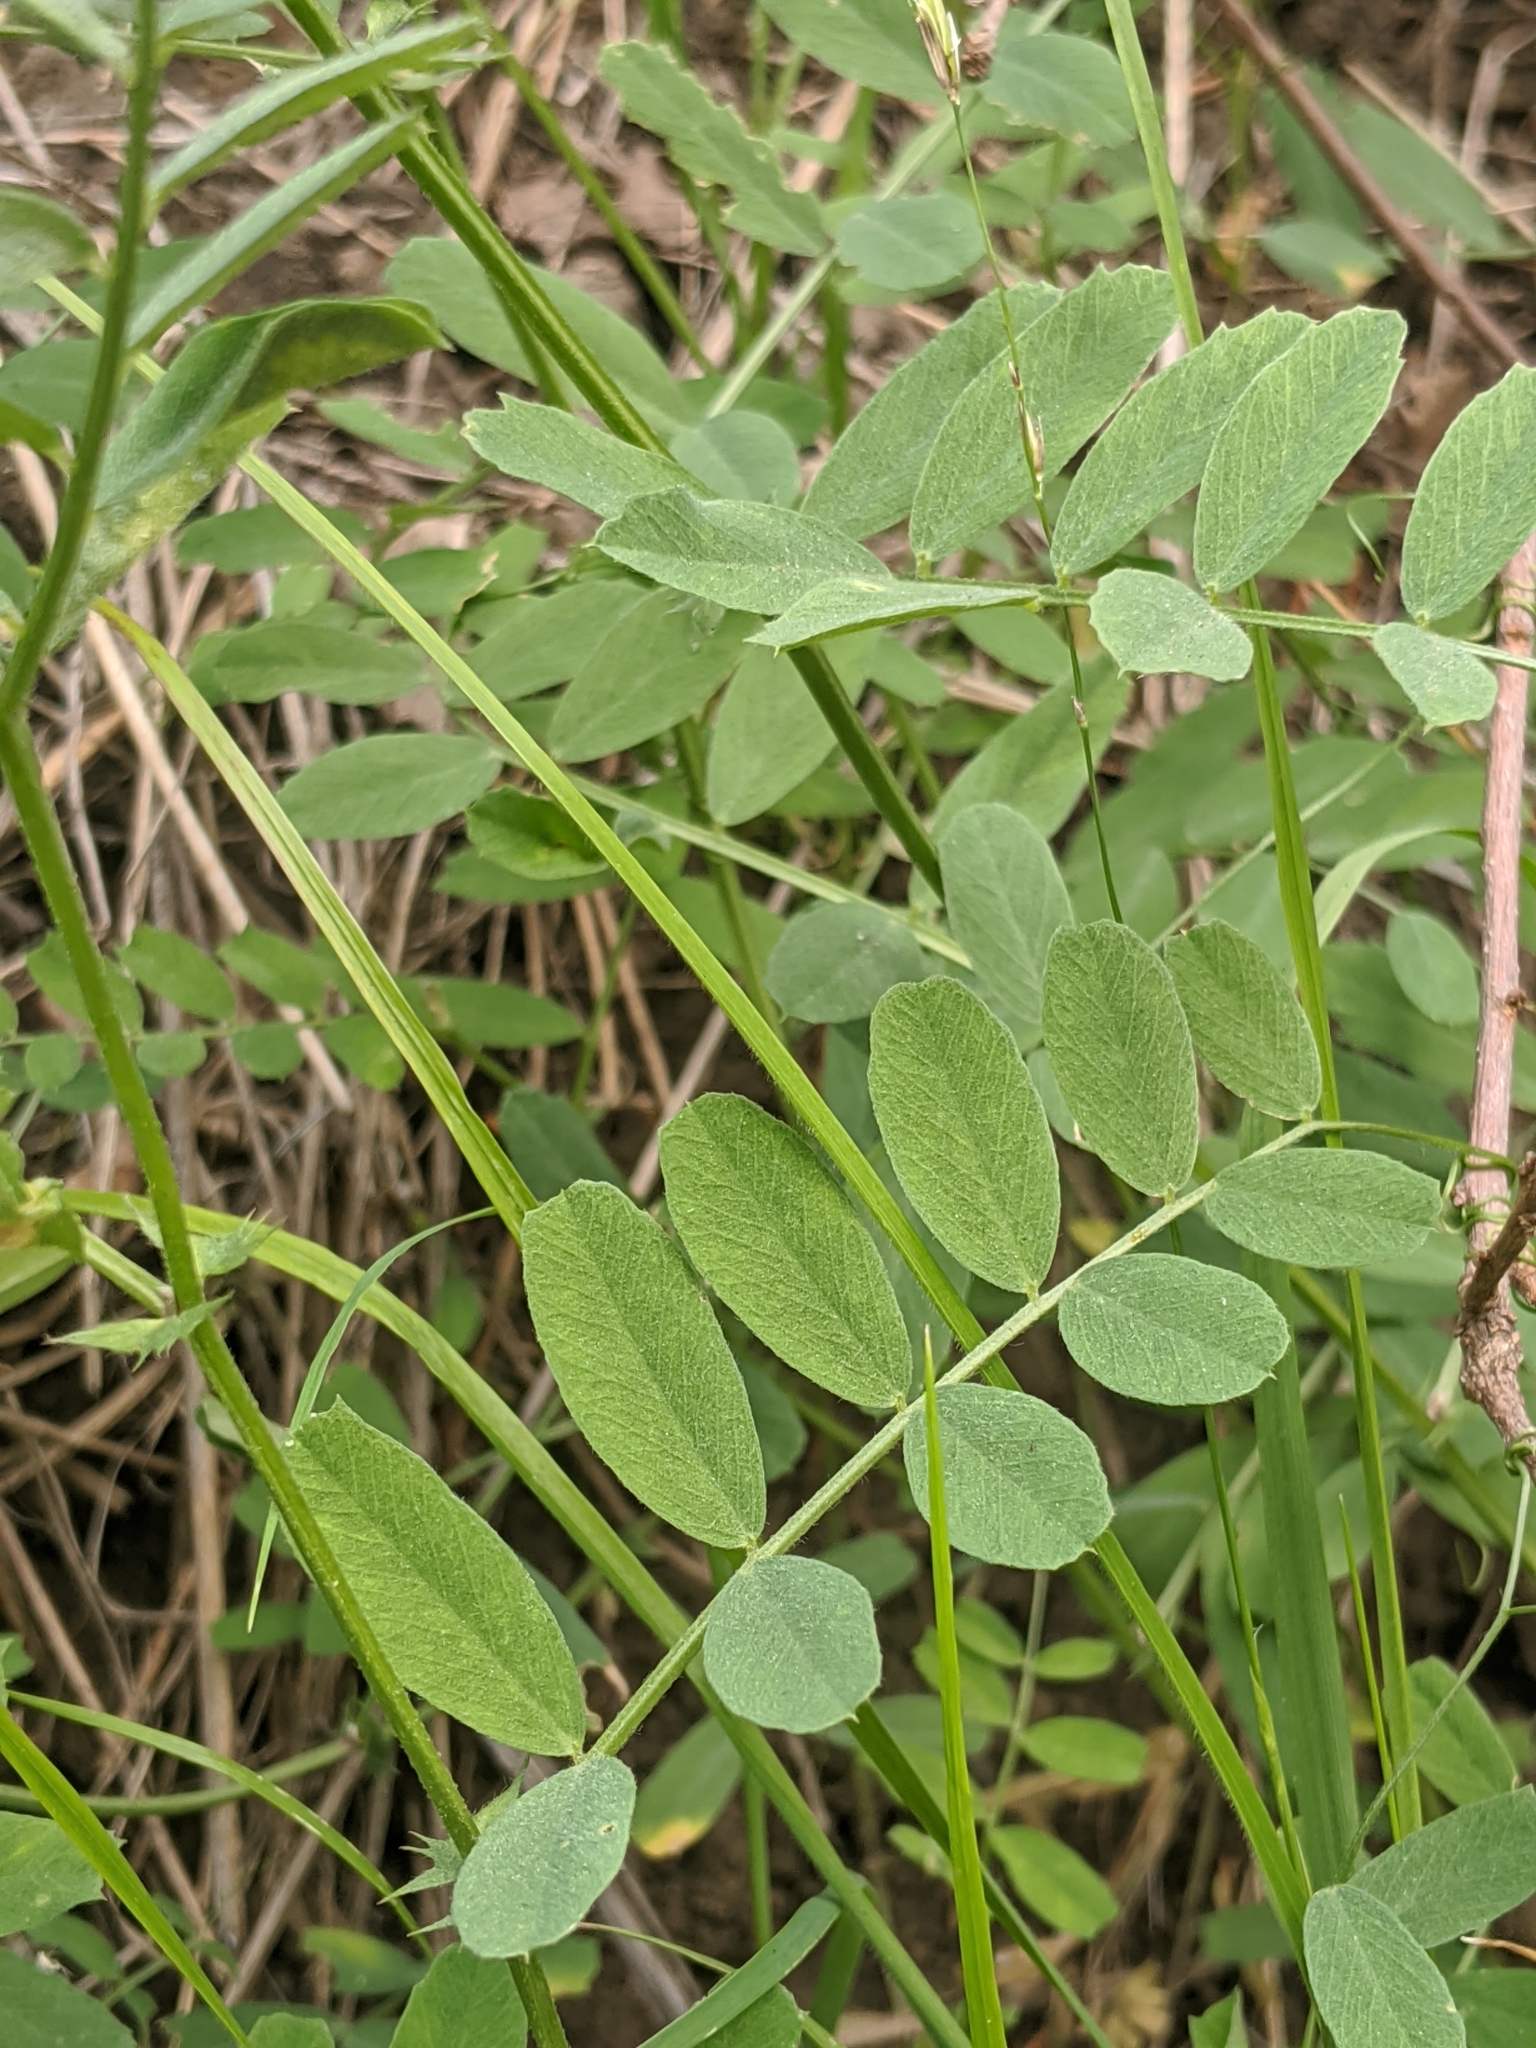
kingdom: Plantae
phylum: Tracheophyta
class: Magnoliopsida
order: Fabales
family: Fabaceae
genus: Vicia
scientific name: Vicia americana
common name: American vetch
